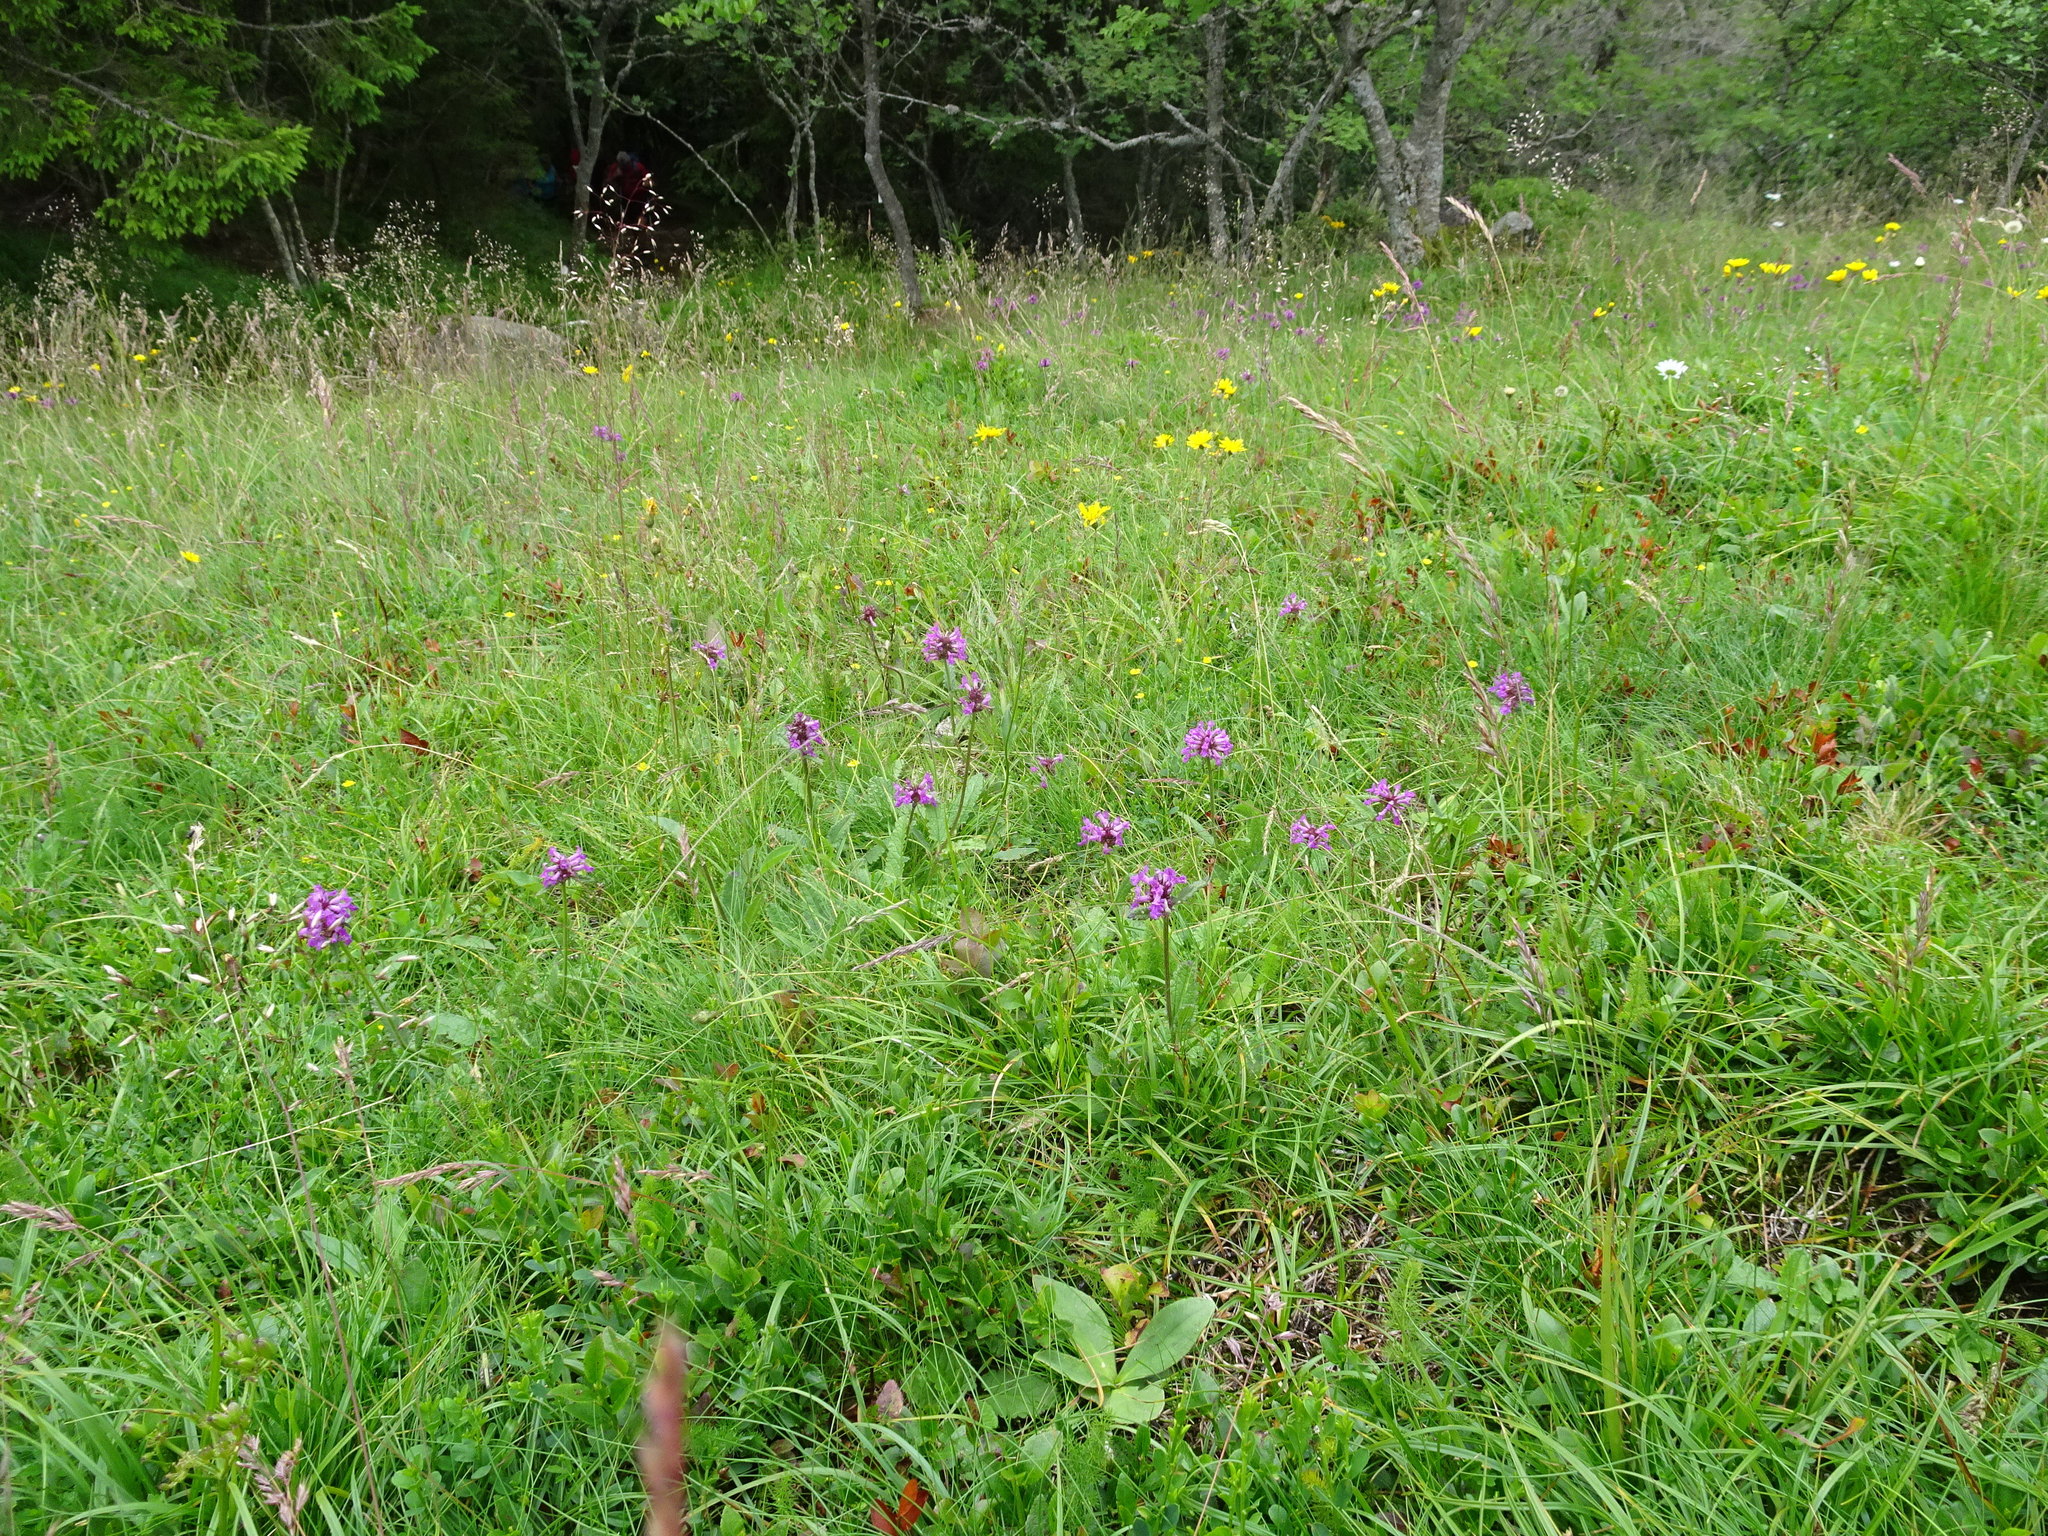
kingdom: Plantae
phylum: Tracheophyta
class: Magnoliopsida
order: Lamiales
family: Lamiaceae
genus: Betonica
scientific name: Betonica officinalis
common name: Bishop's-wort
